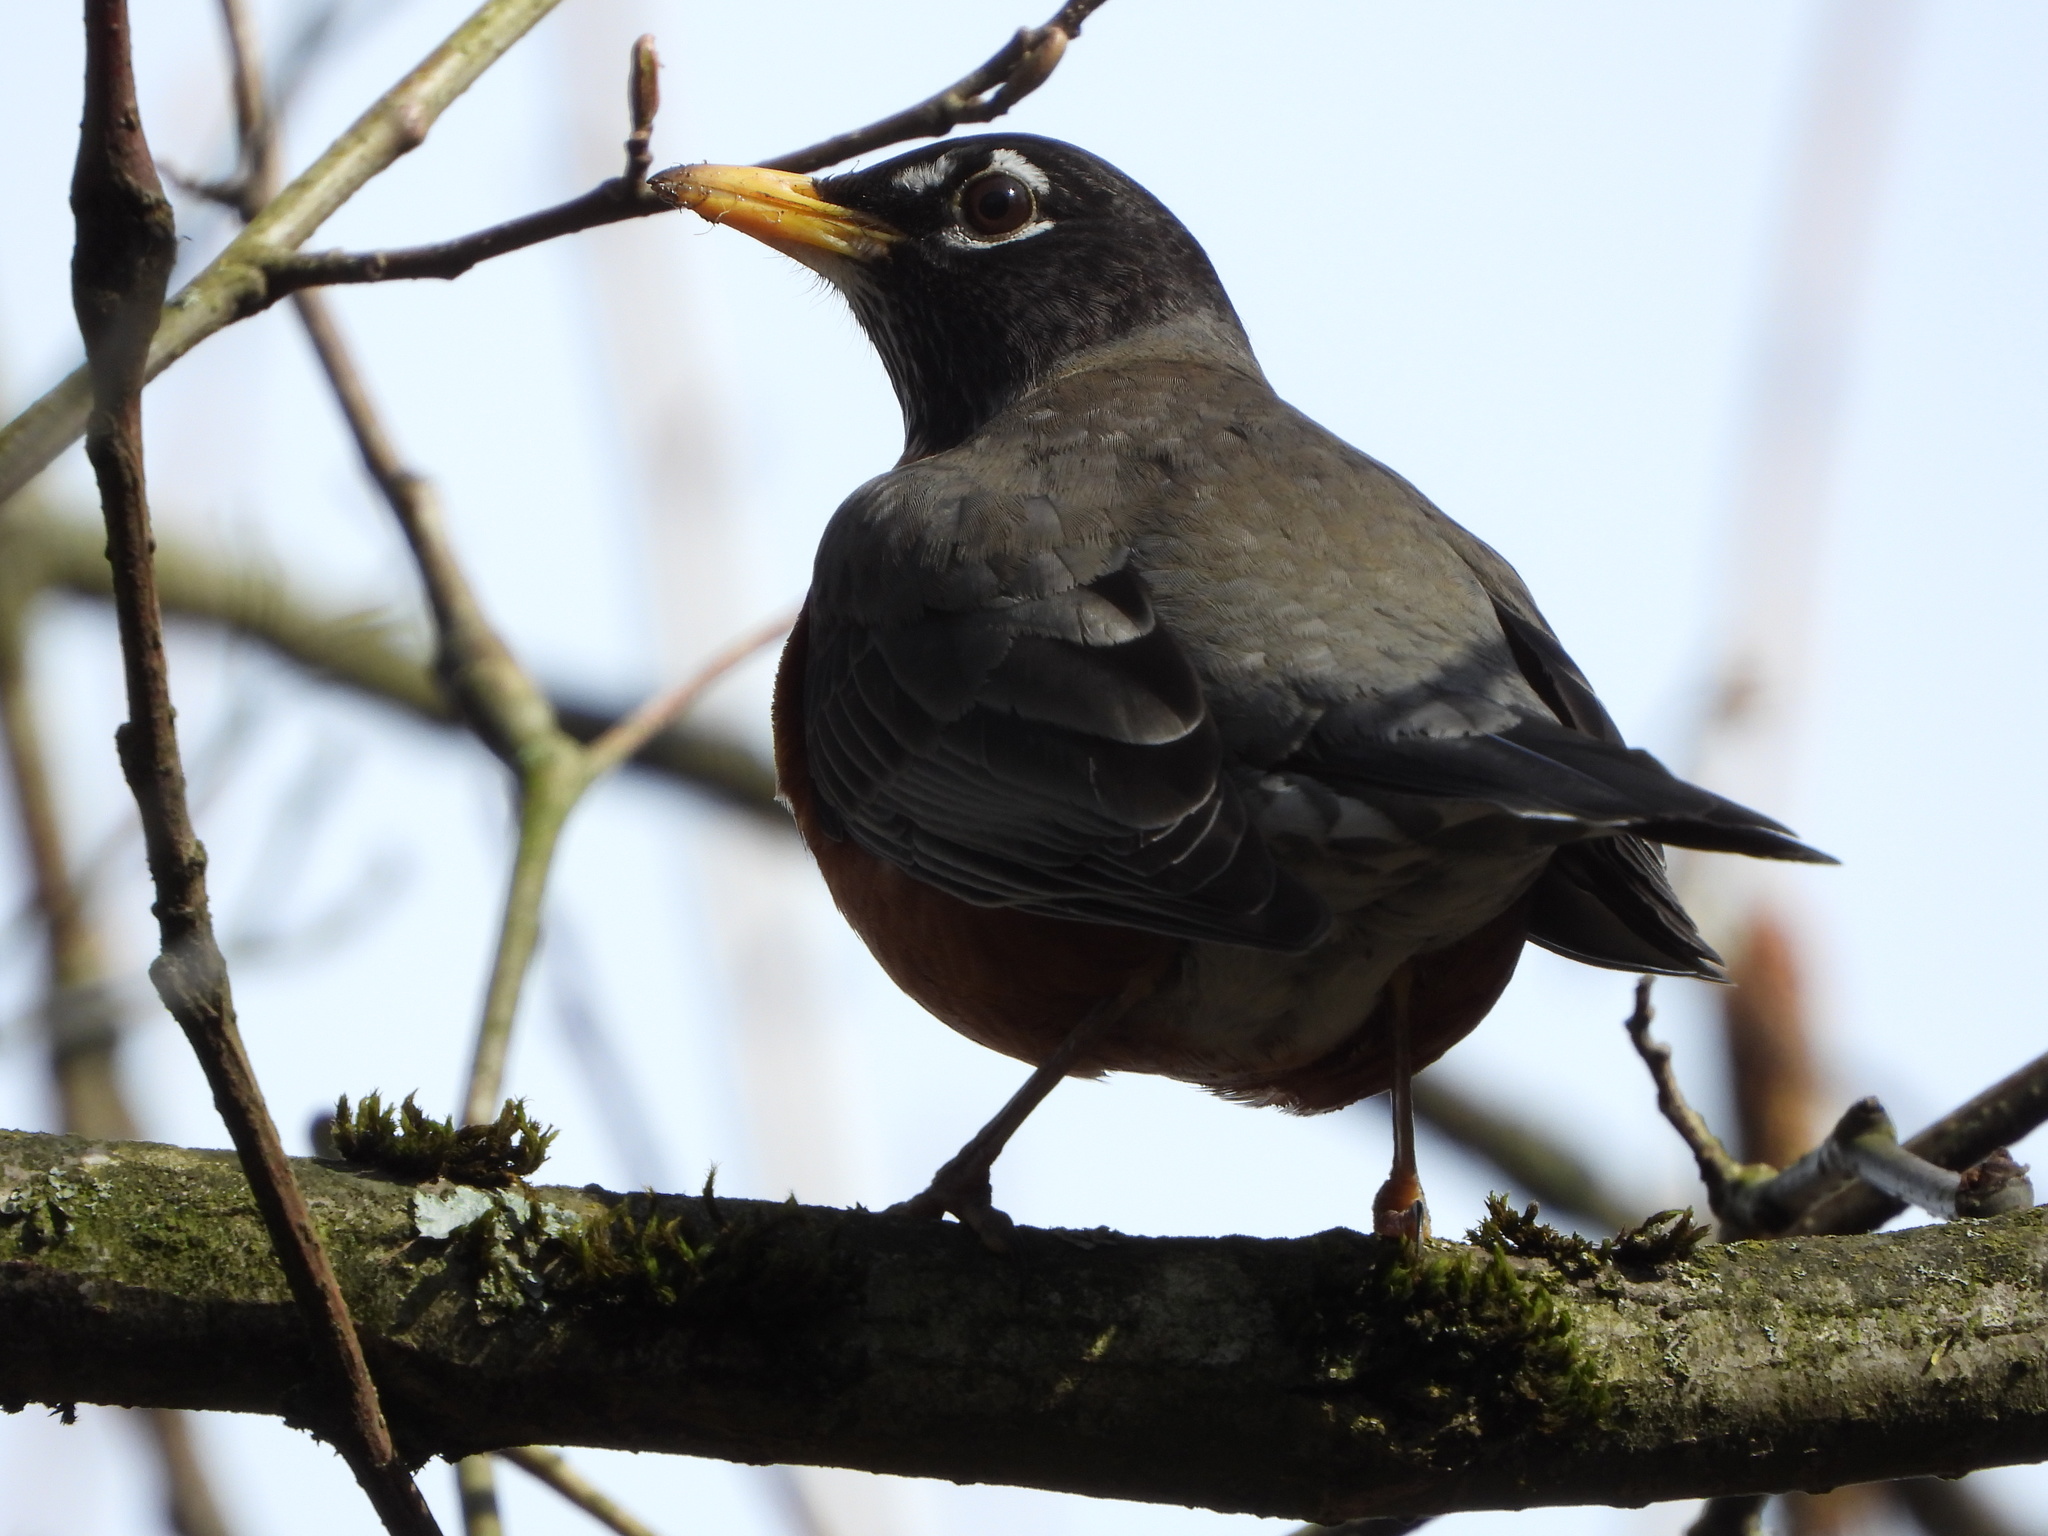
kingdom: Animalia
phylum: Chordata
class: Aves
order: Passeriformes
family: Turdidae
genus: Turdus
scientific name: Turdus migratorius
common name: American robin
